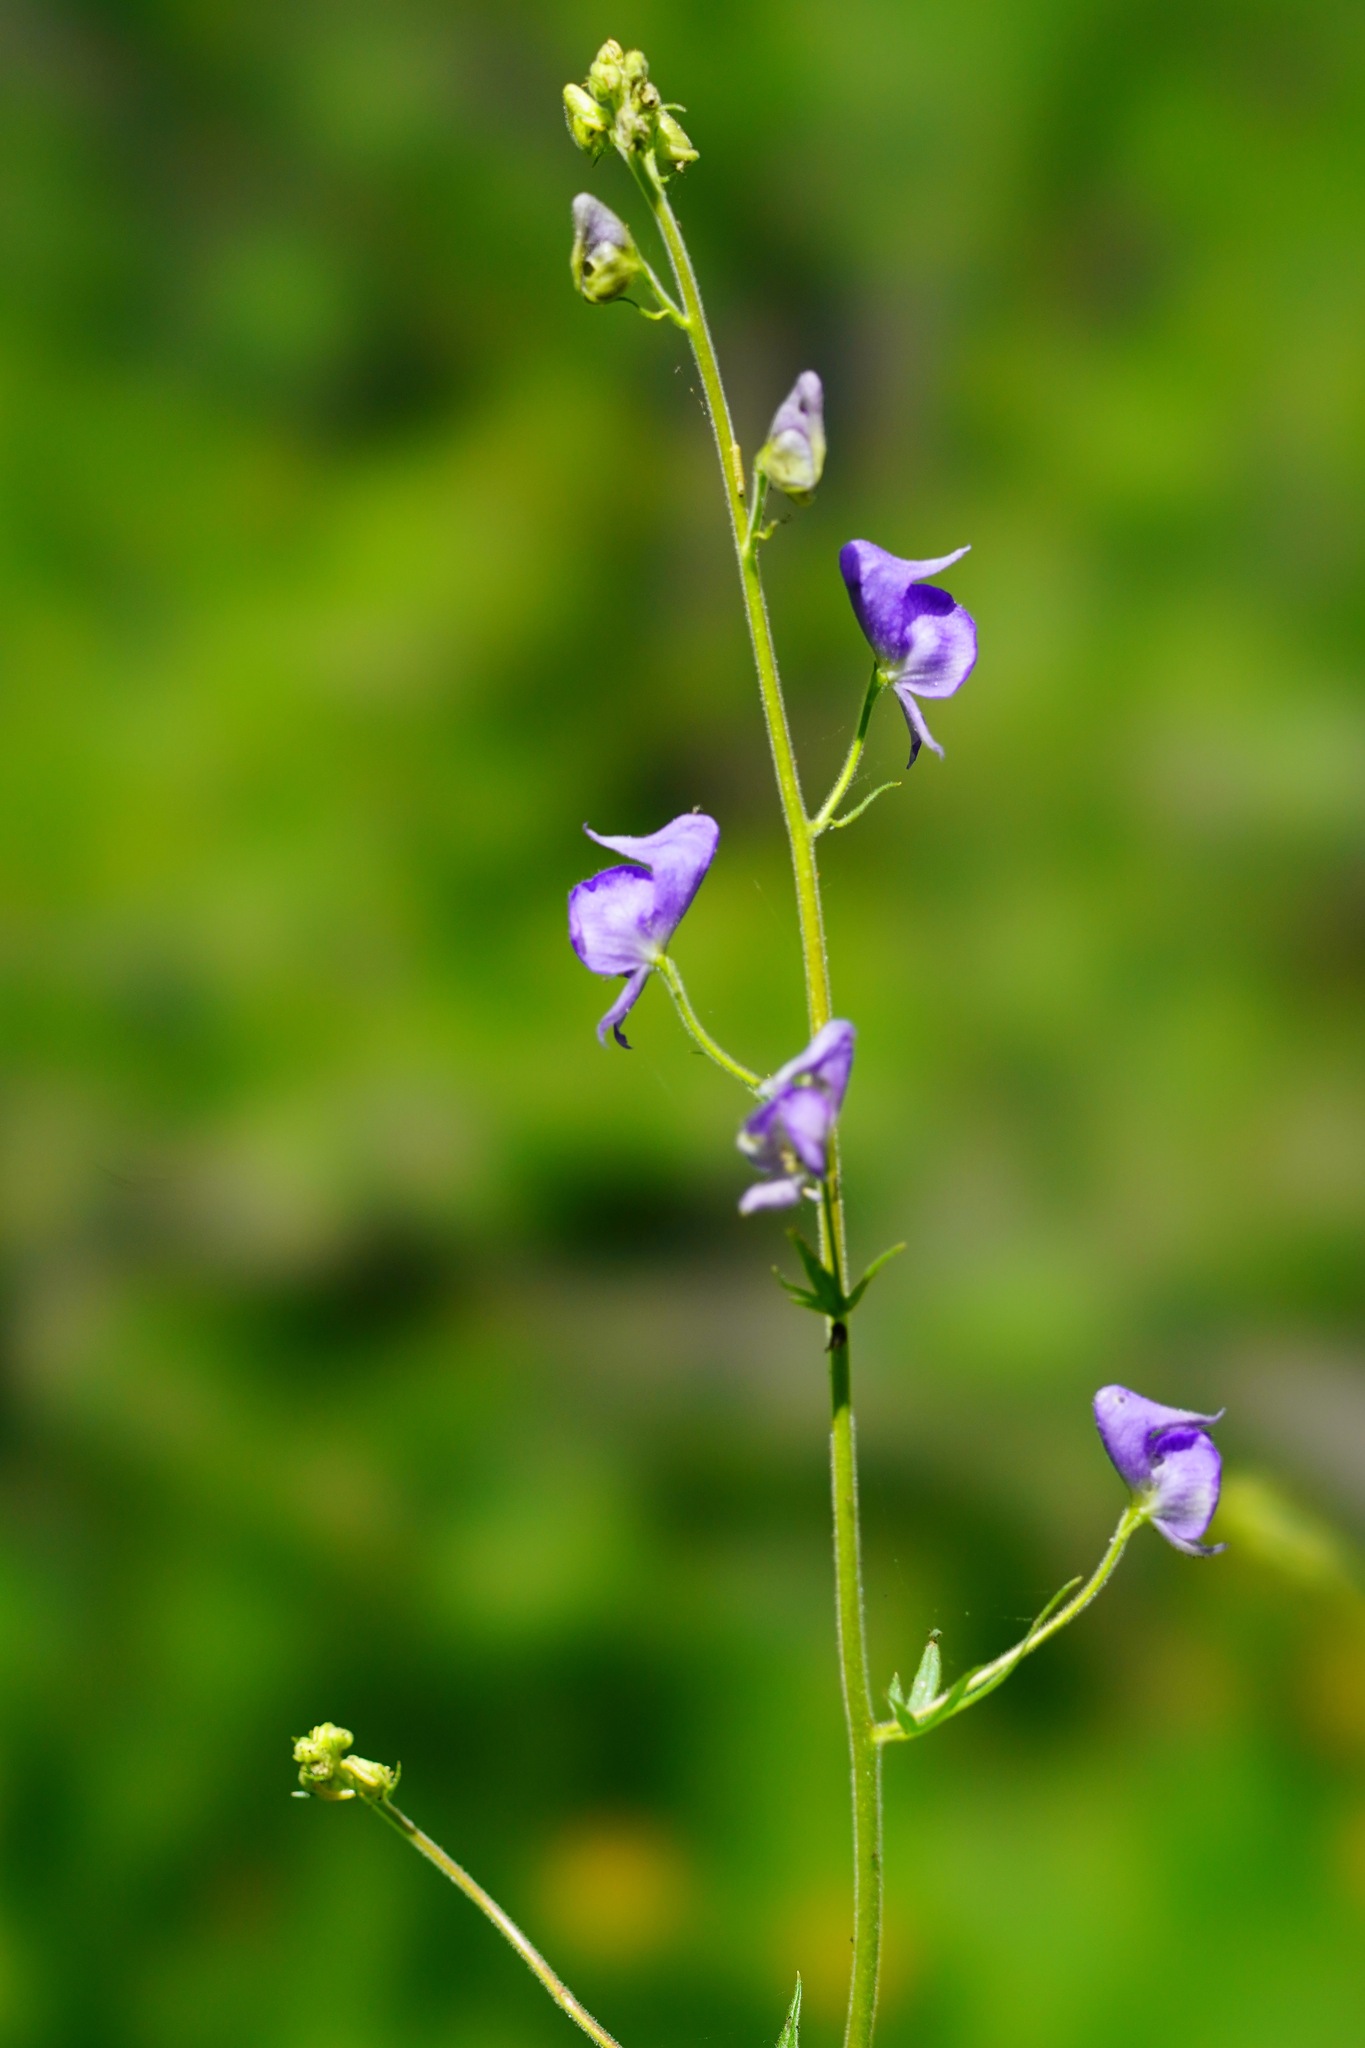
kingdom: Plantae
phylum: Tracheophyta
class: Magnoliopsida
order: Ranunculales
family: Ranunculaceae
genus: Aconitum
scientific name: Aconitum columbianum
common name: Columbia aconite
